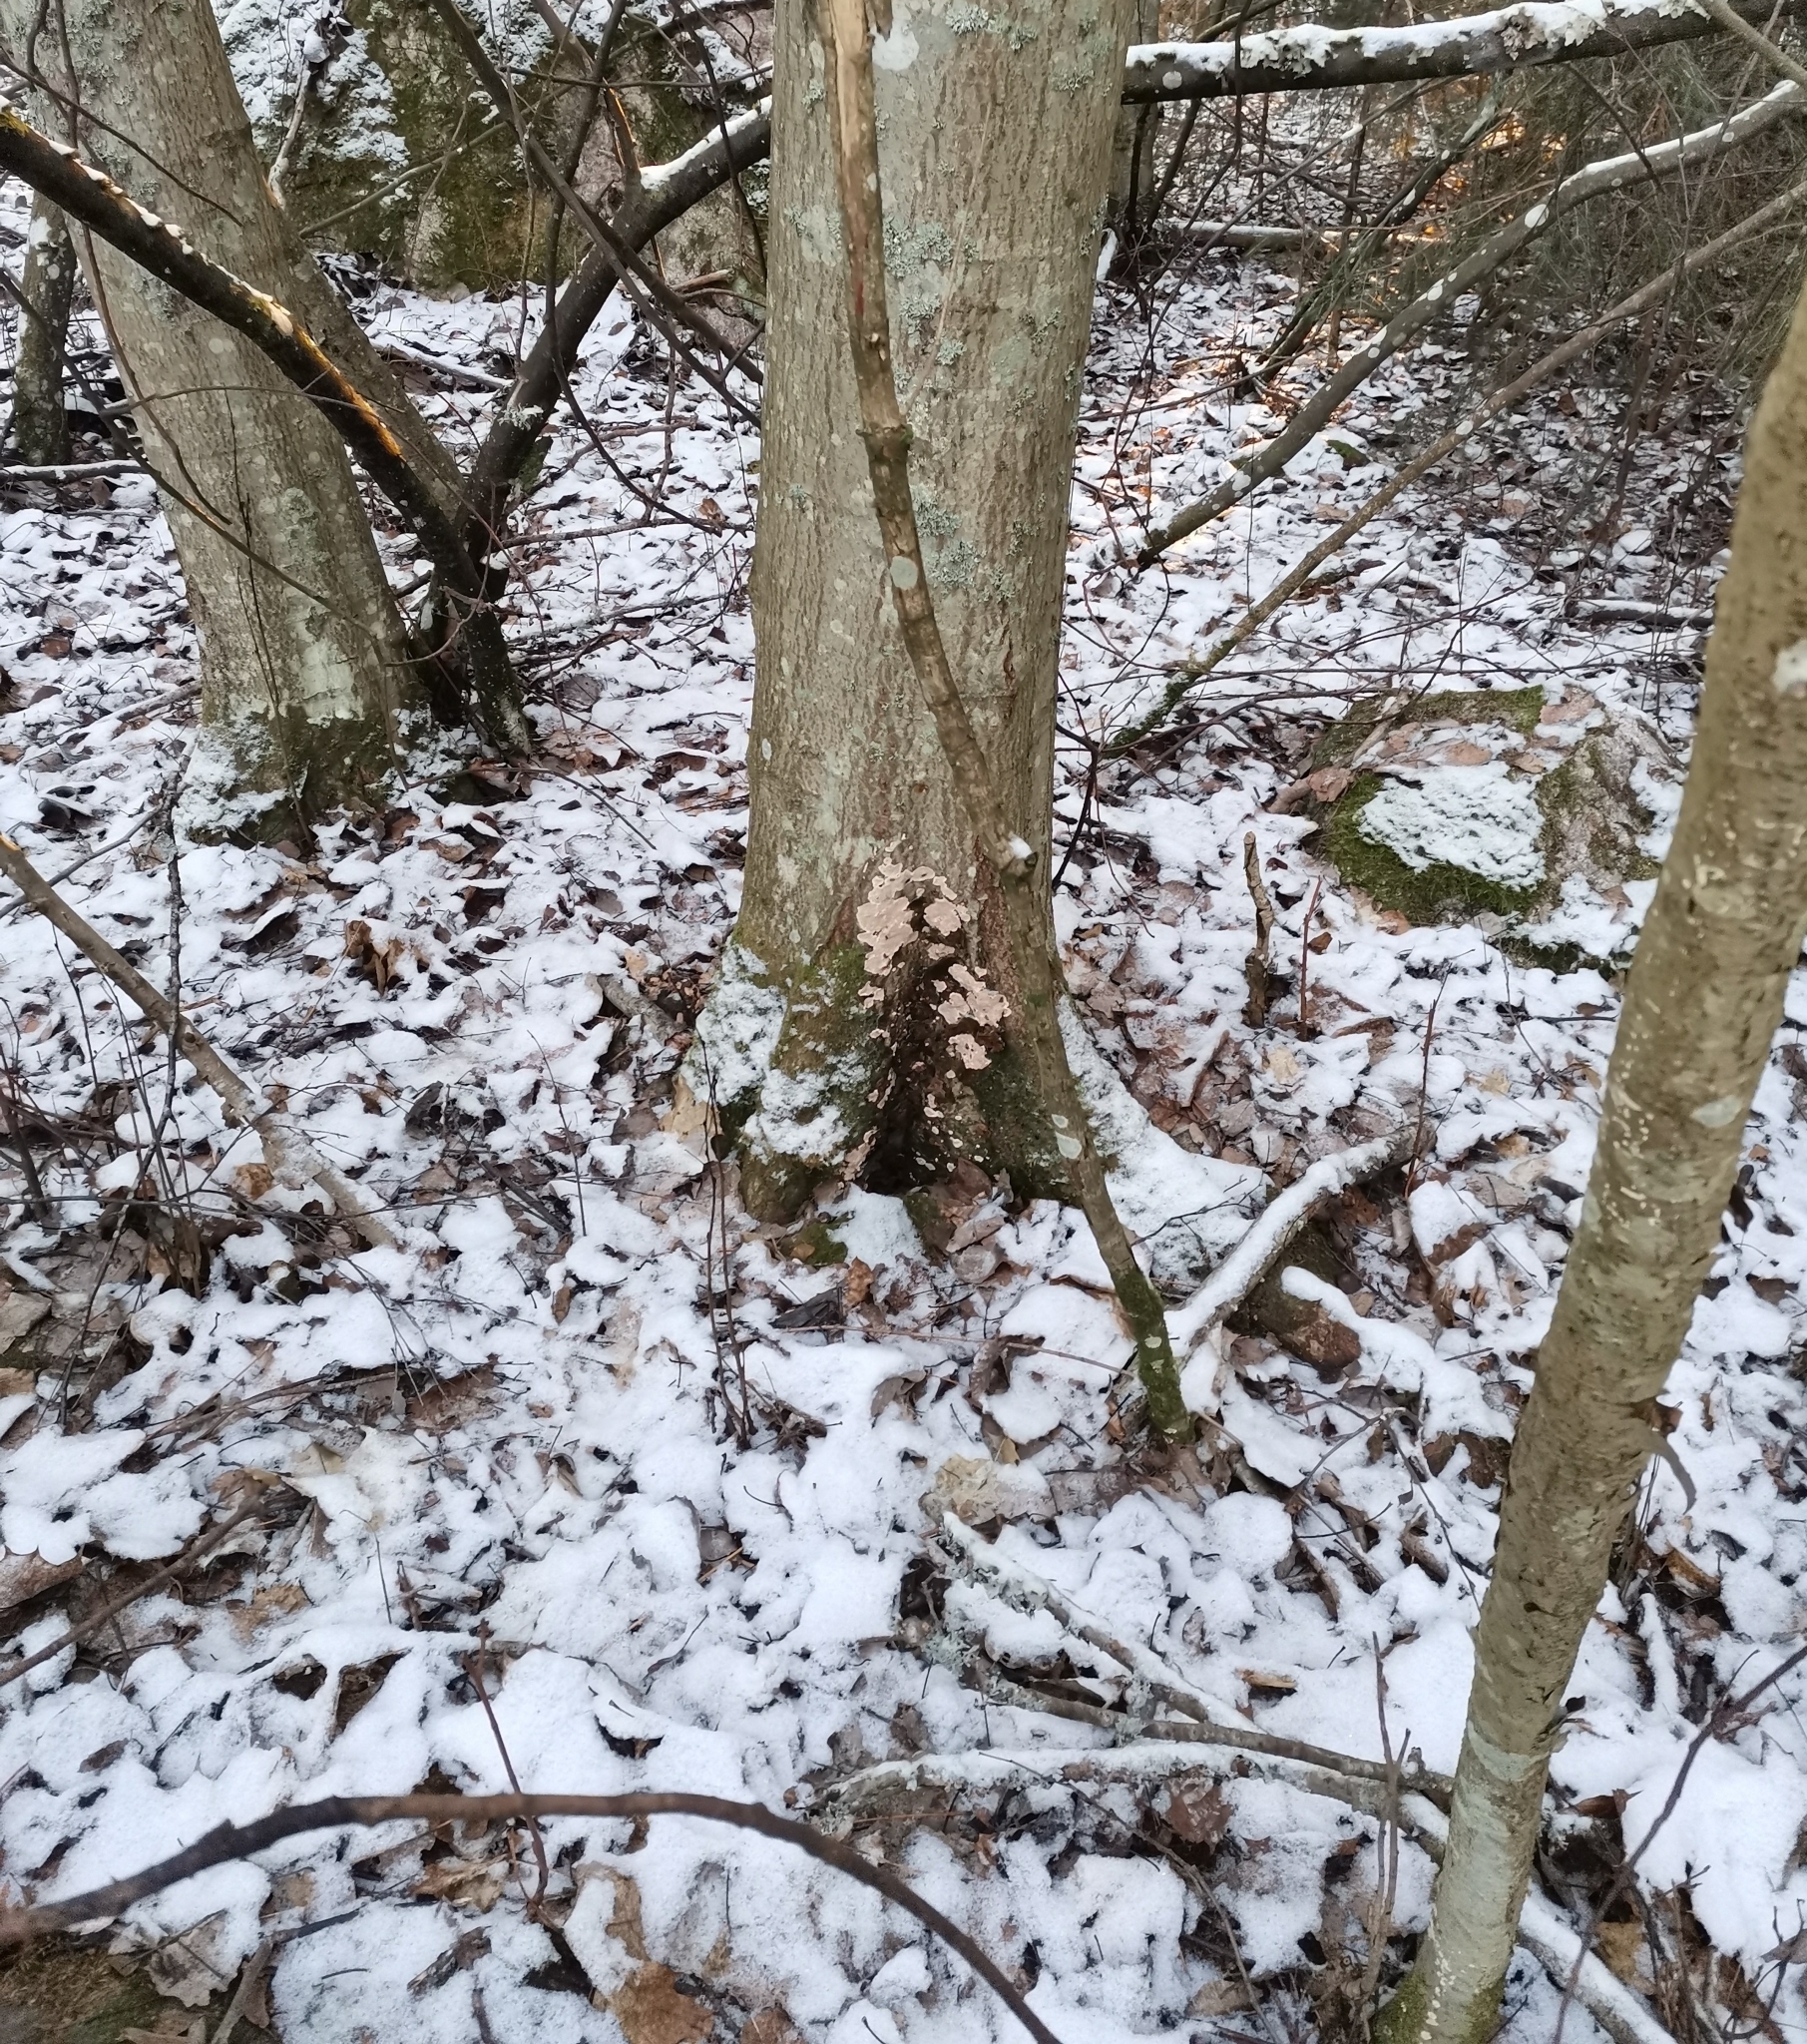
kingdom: Fungi
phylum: Basidiomycota
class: Agaricomycetes
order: Russulales
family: Stereaceae
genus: Stereum
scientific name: Stereum rugosum
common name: Bleeding broadleaf crust
